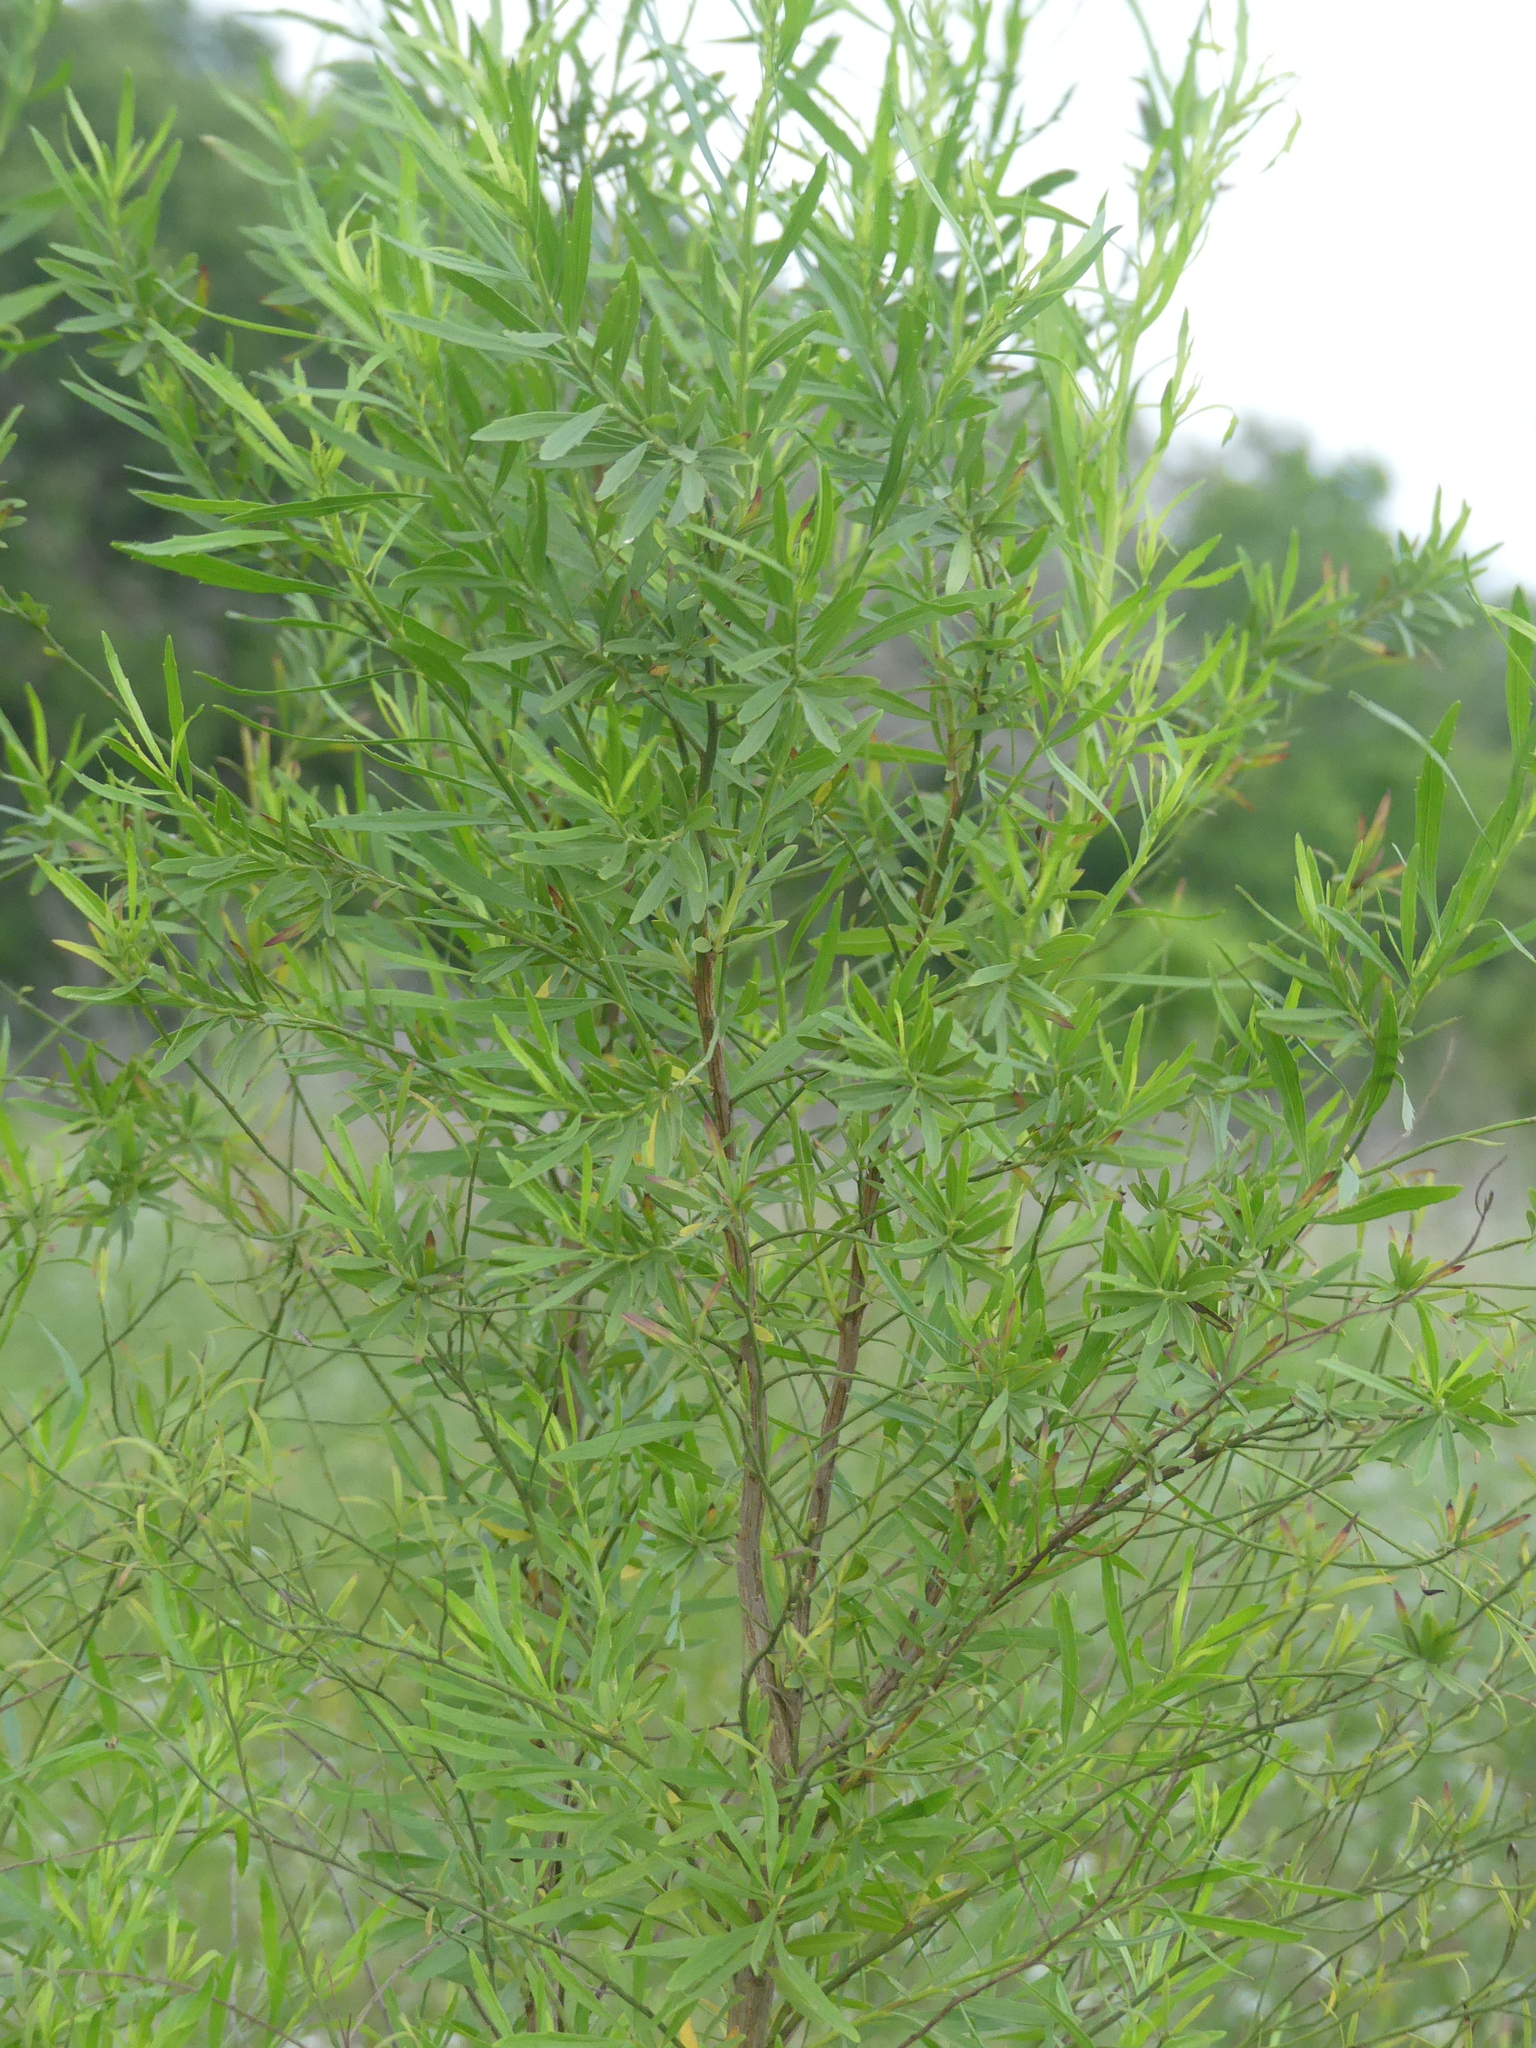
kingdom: Plantae
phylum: Tracheophyta
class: Magnoliopsida
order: Asterales
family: Asteraceae
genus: Baccharis
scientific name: Baccharis neglecta
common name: Roosevelt-weed
